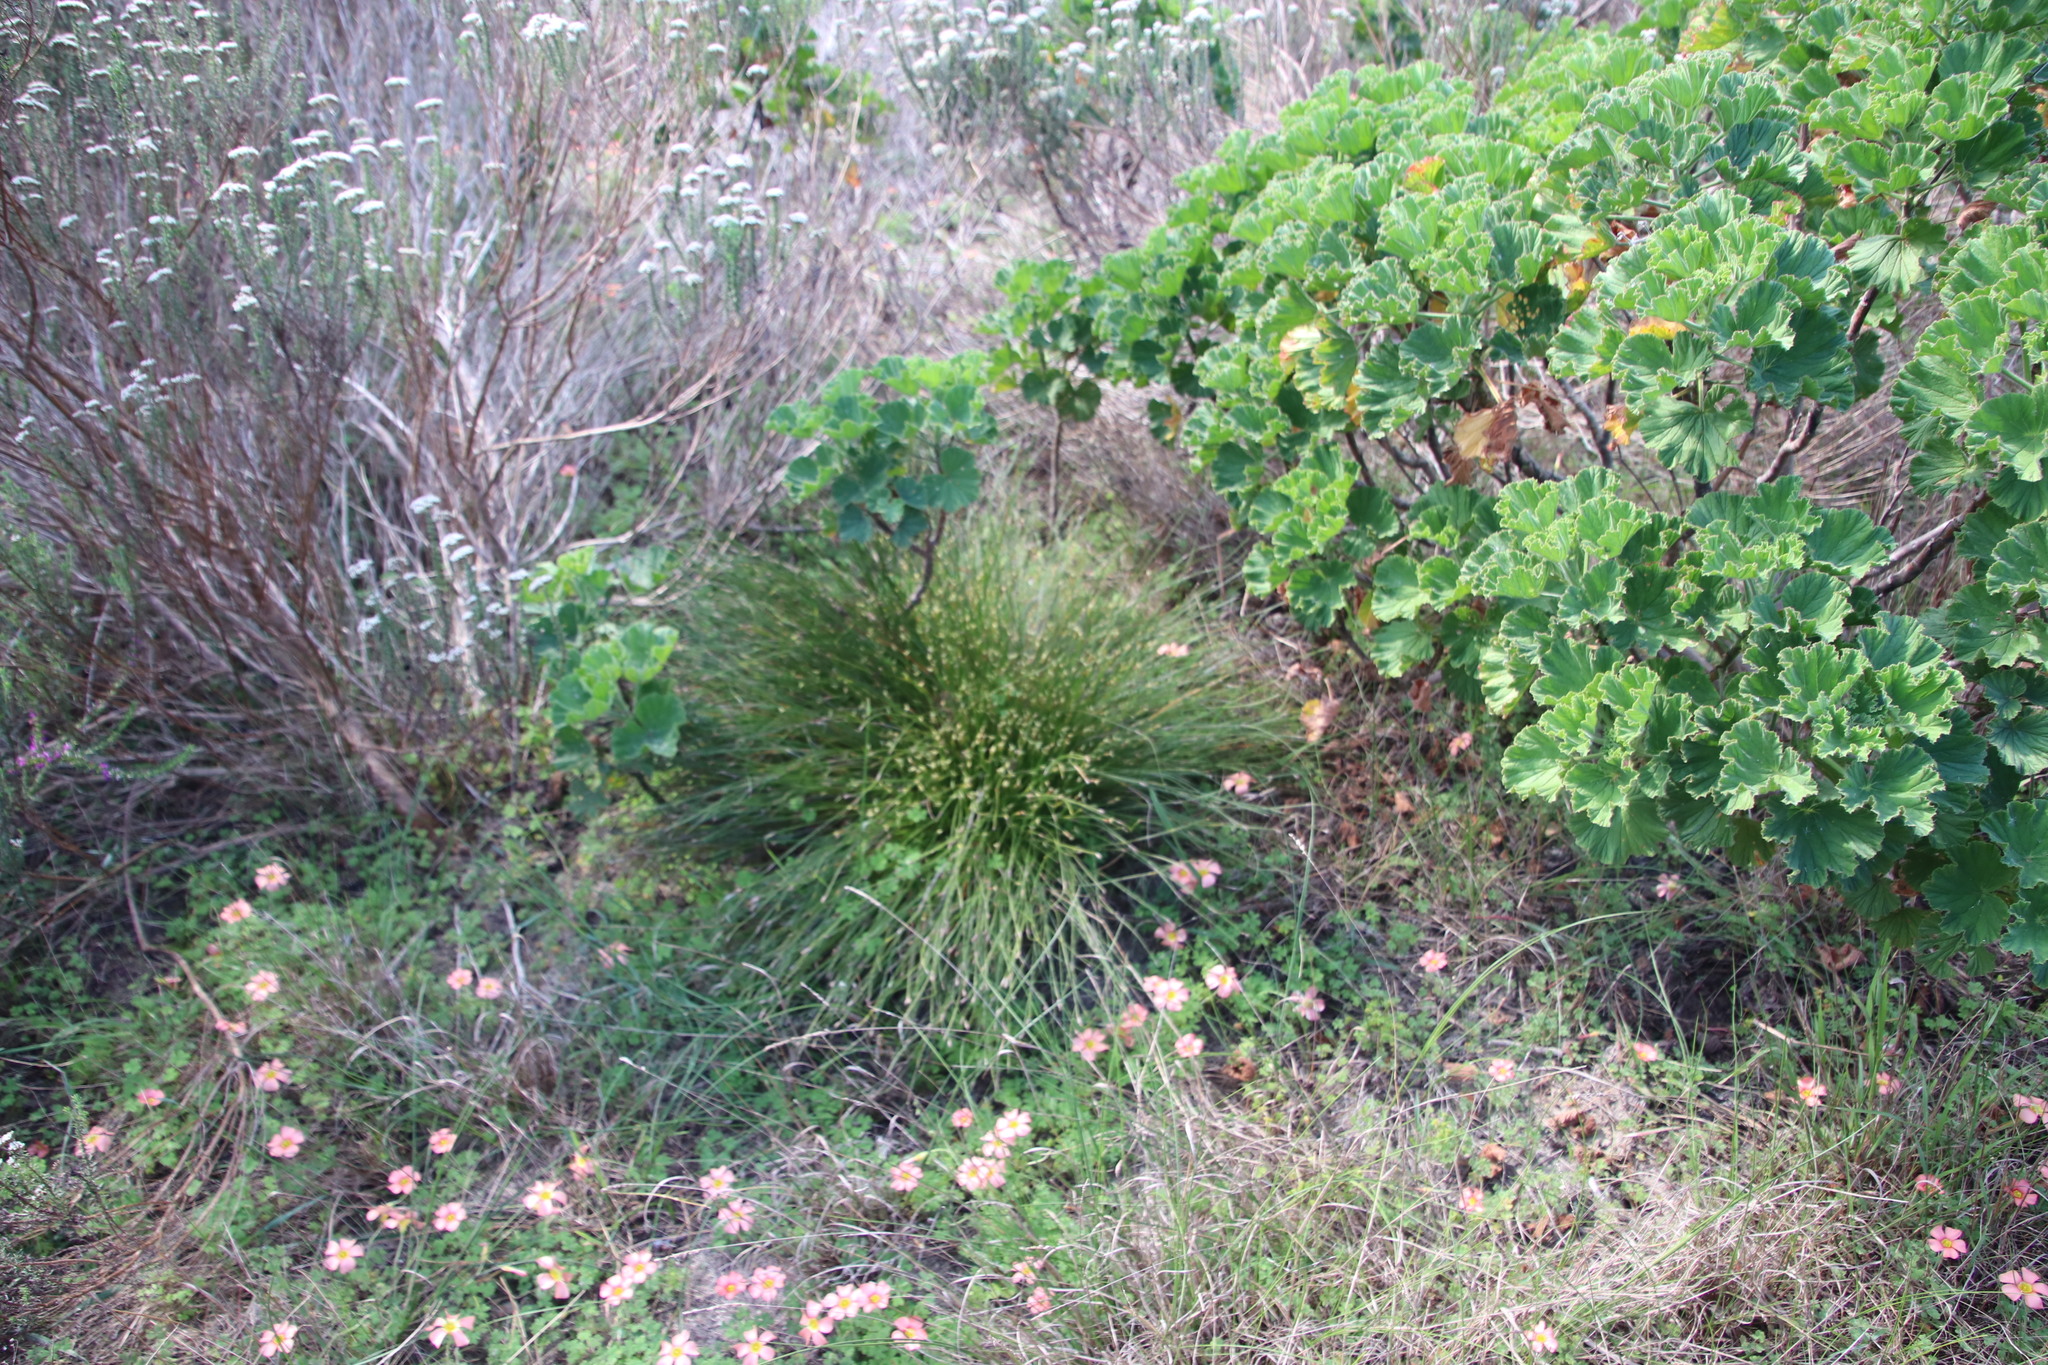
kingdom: Plantae
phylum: Tracheophyta
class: Liliopsida
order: Poales
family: Restionaceae
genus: Hypodiscus
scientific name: Hypodiscus willdenowia
